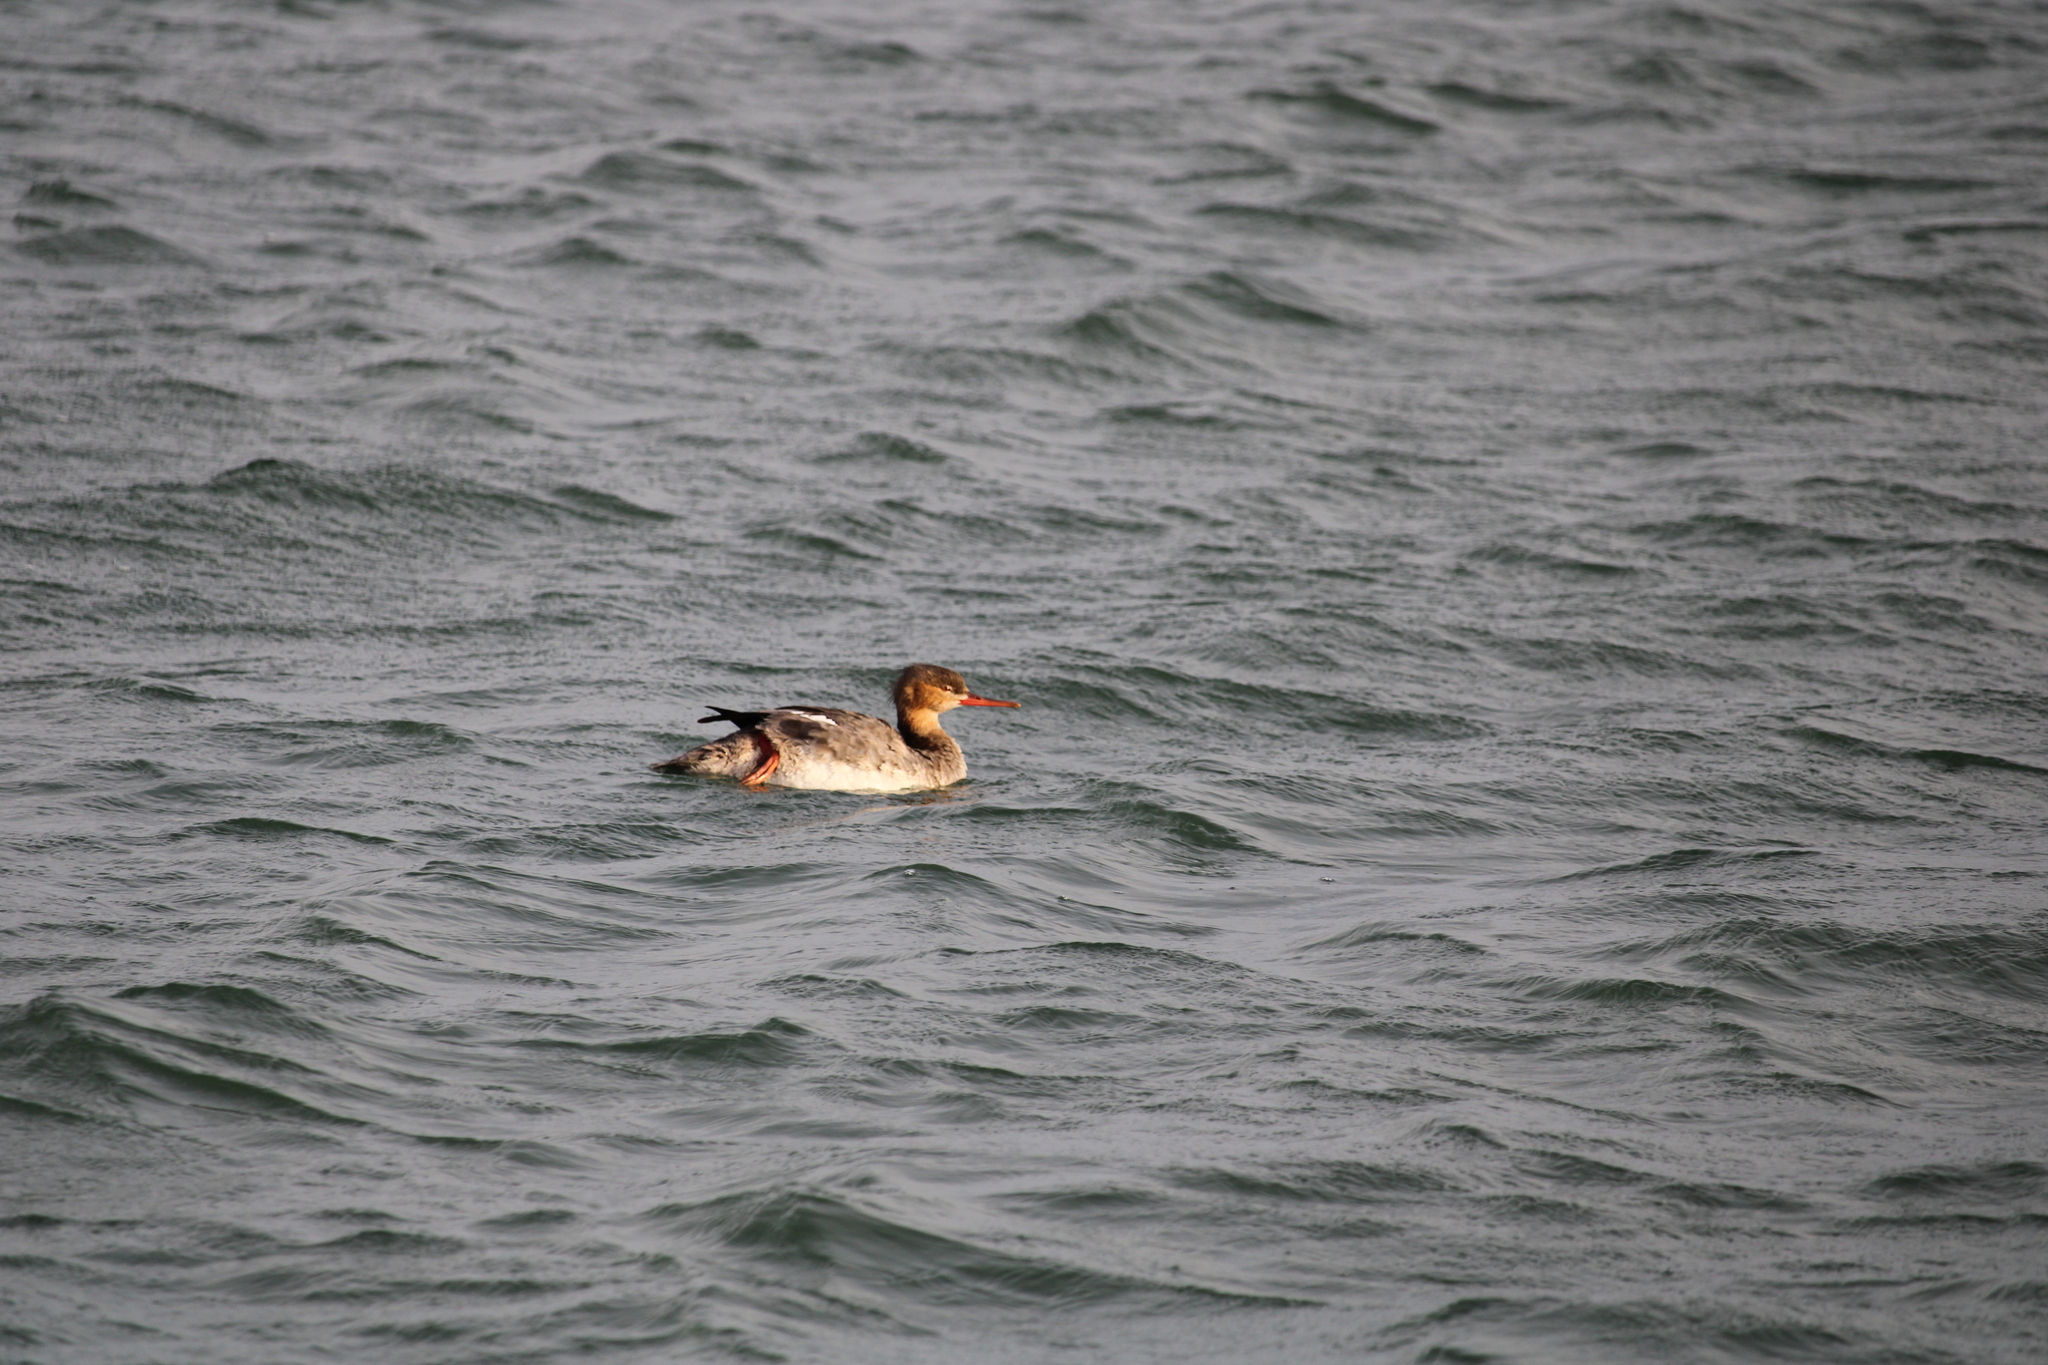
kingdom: Animalia
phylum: Chordata
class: Aves
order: Anseriformes
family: Anatidae
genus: Mergus
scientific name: Mergus serrator
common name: Red-breasted merganser
